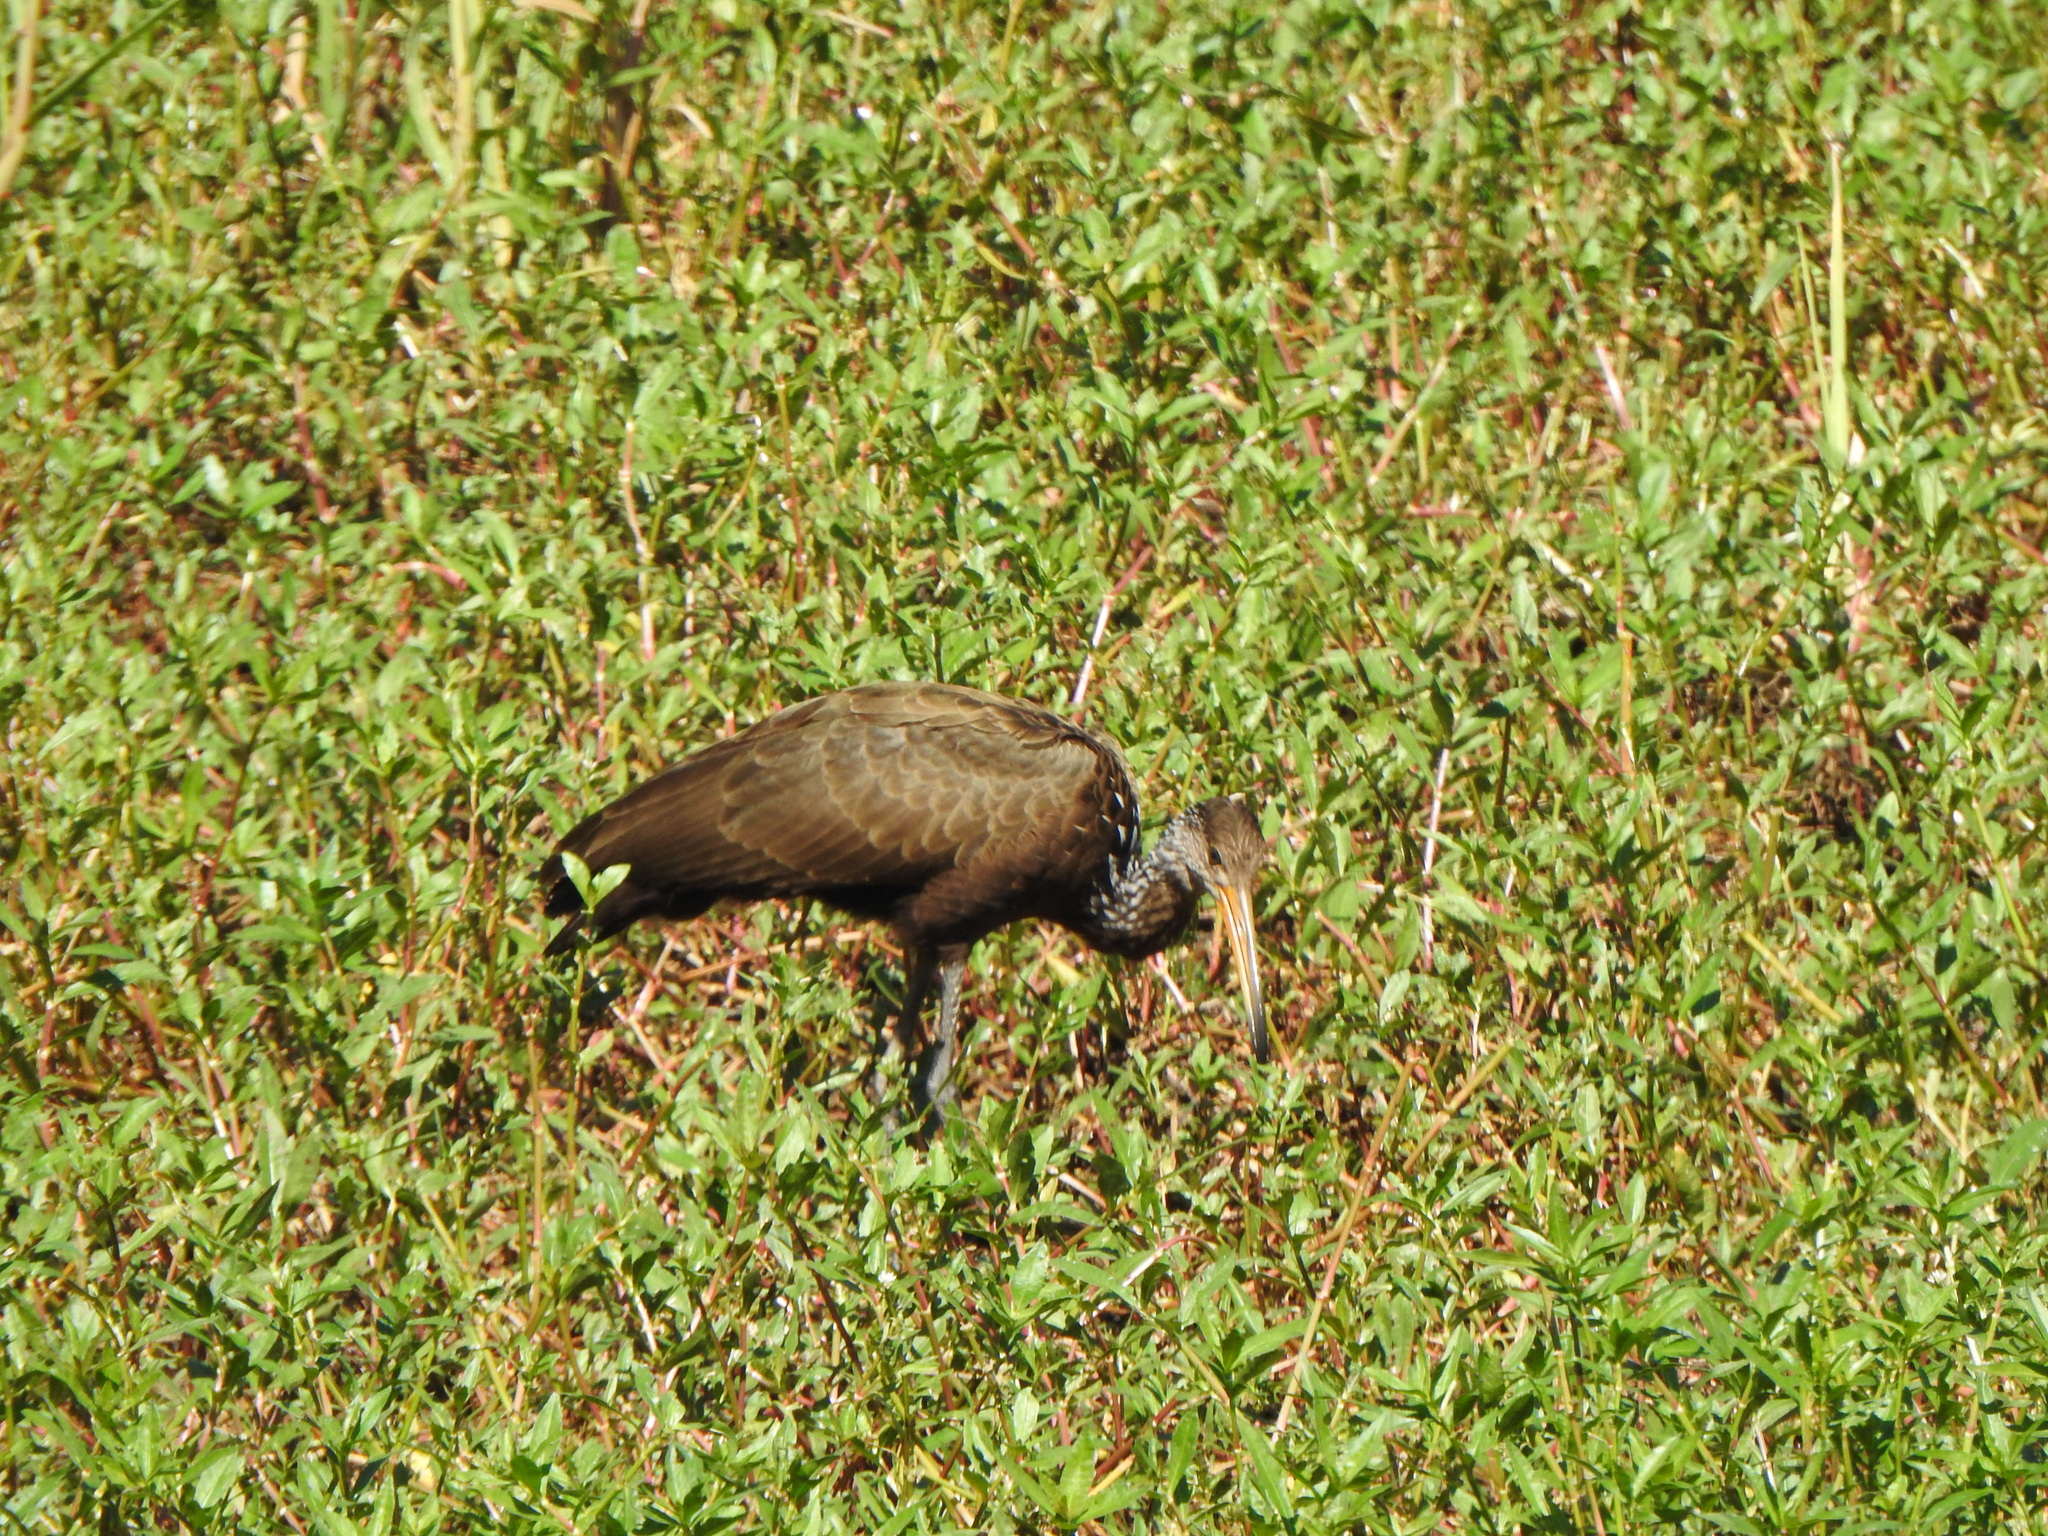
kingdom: Animalia
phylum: Chordata
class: Aves
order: Gruiformes
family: Aramidae
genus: Aramus
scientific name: Aramus guarauna
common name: Limpkin
